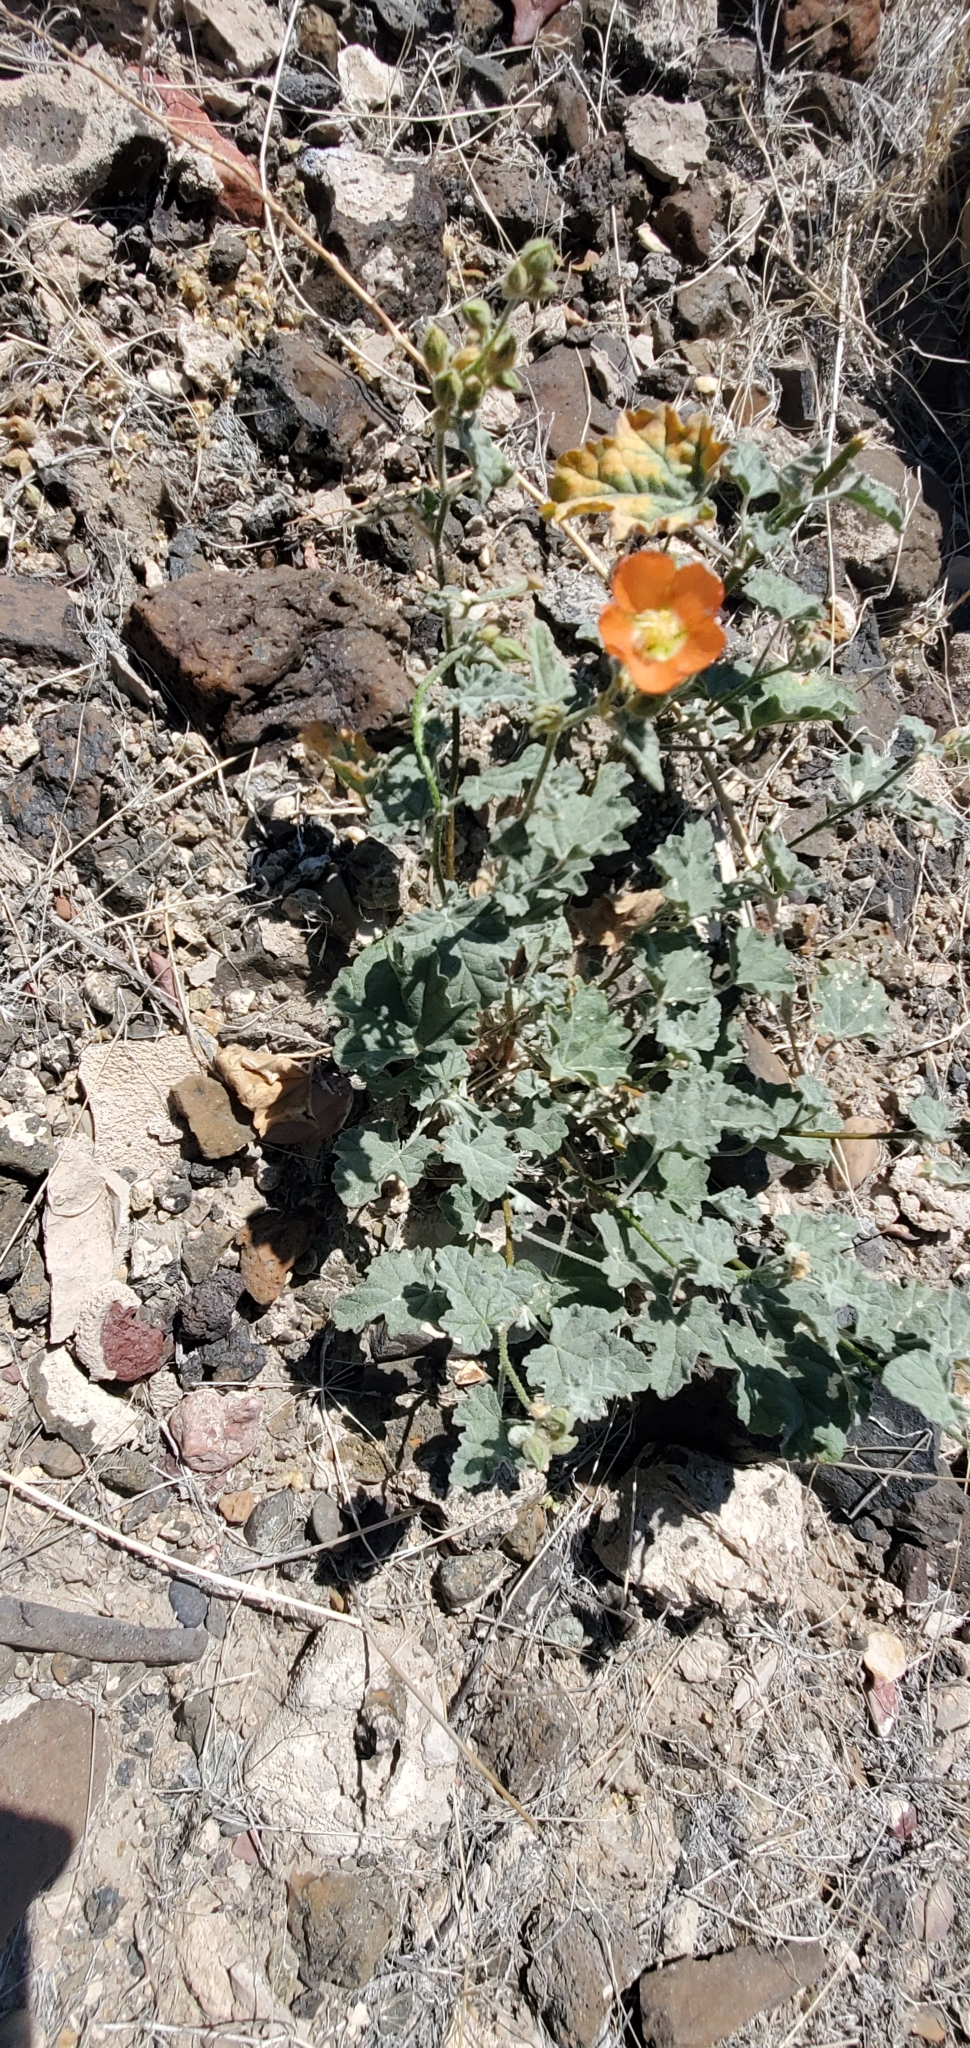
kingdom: Plantae
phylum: Tracheophyta
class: Magnoliopsida
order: Malvales
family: Malvaceae
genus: Sphaeralcea
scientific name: Sphaeralcea ambigua
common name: Apricot globe-mallow
